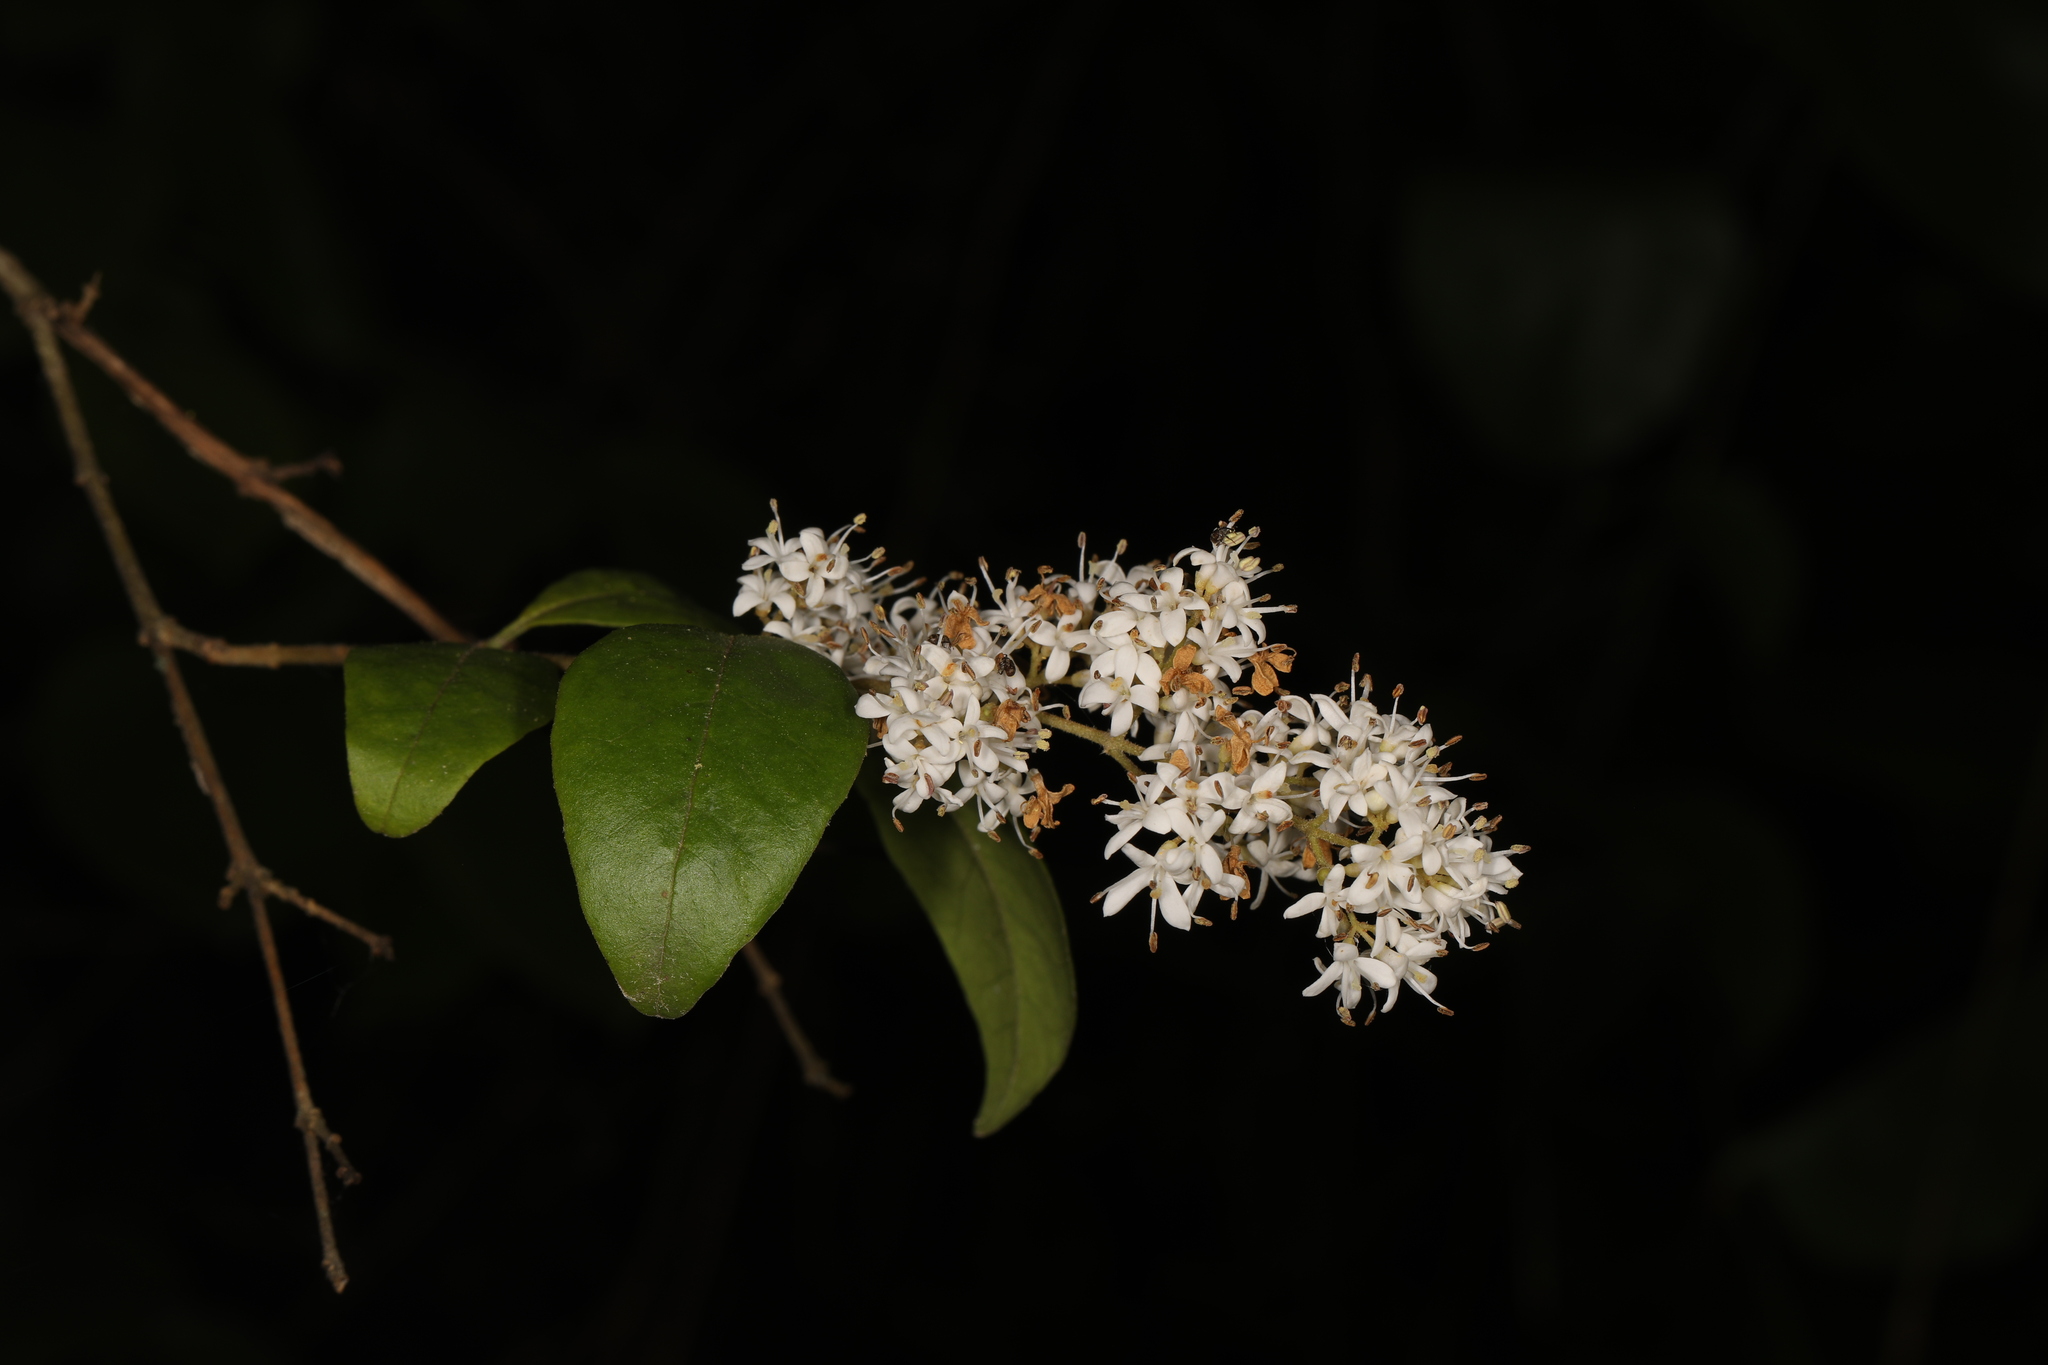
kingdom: Plantae
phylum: Tracheophyta
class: Magnoliopsida
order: Lamiales
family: Oleaceae
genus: Ligustrum
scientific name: Ligustrum sinense
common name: Chinese privet
